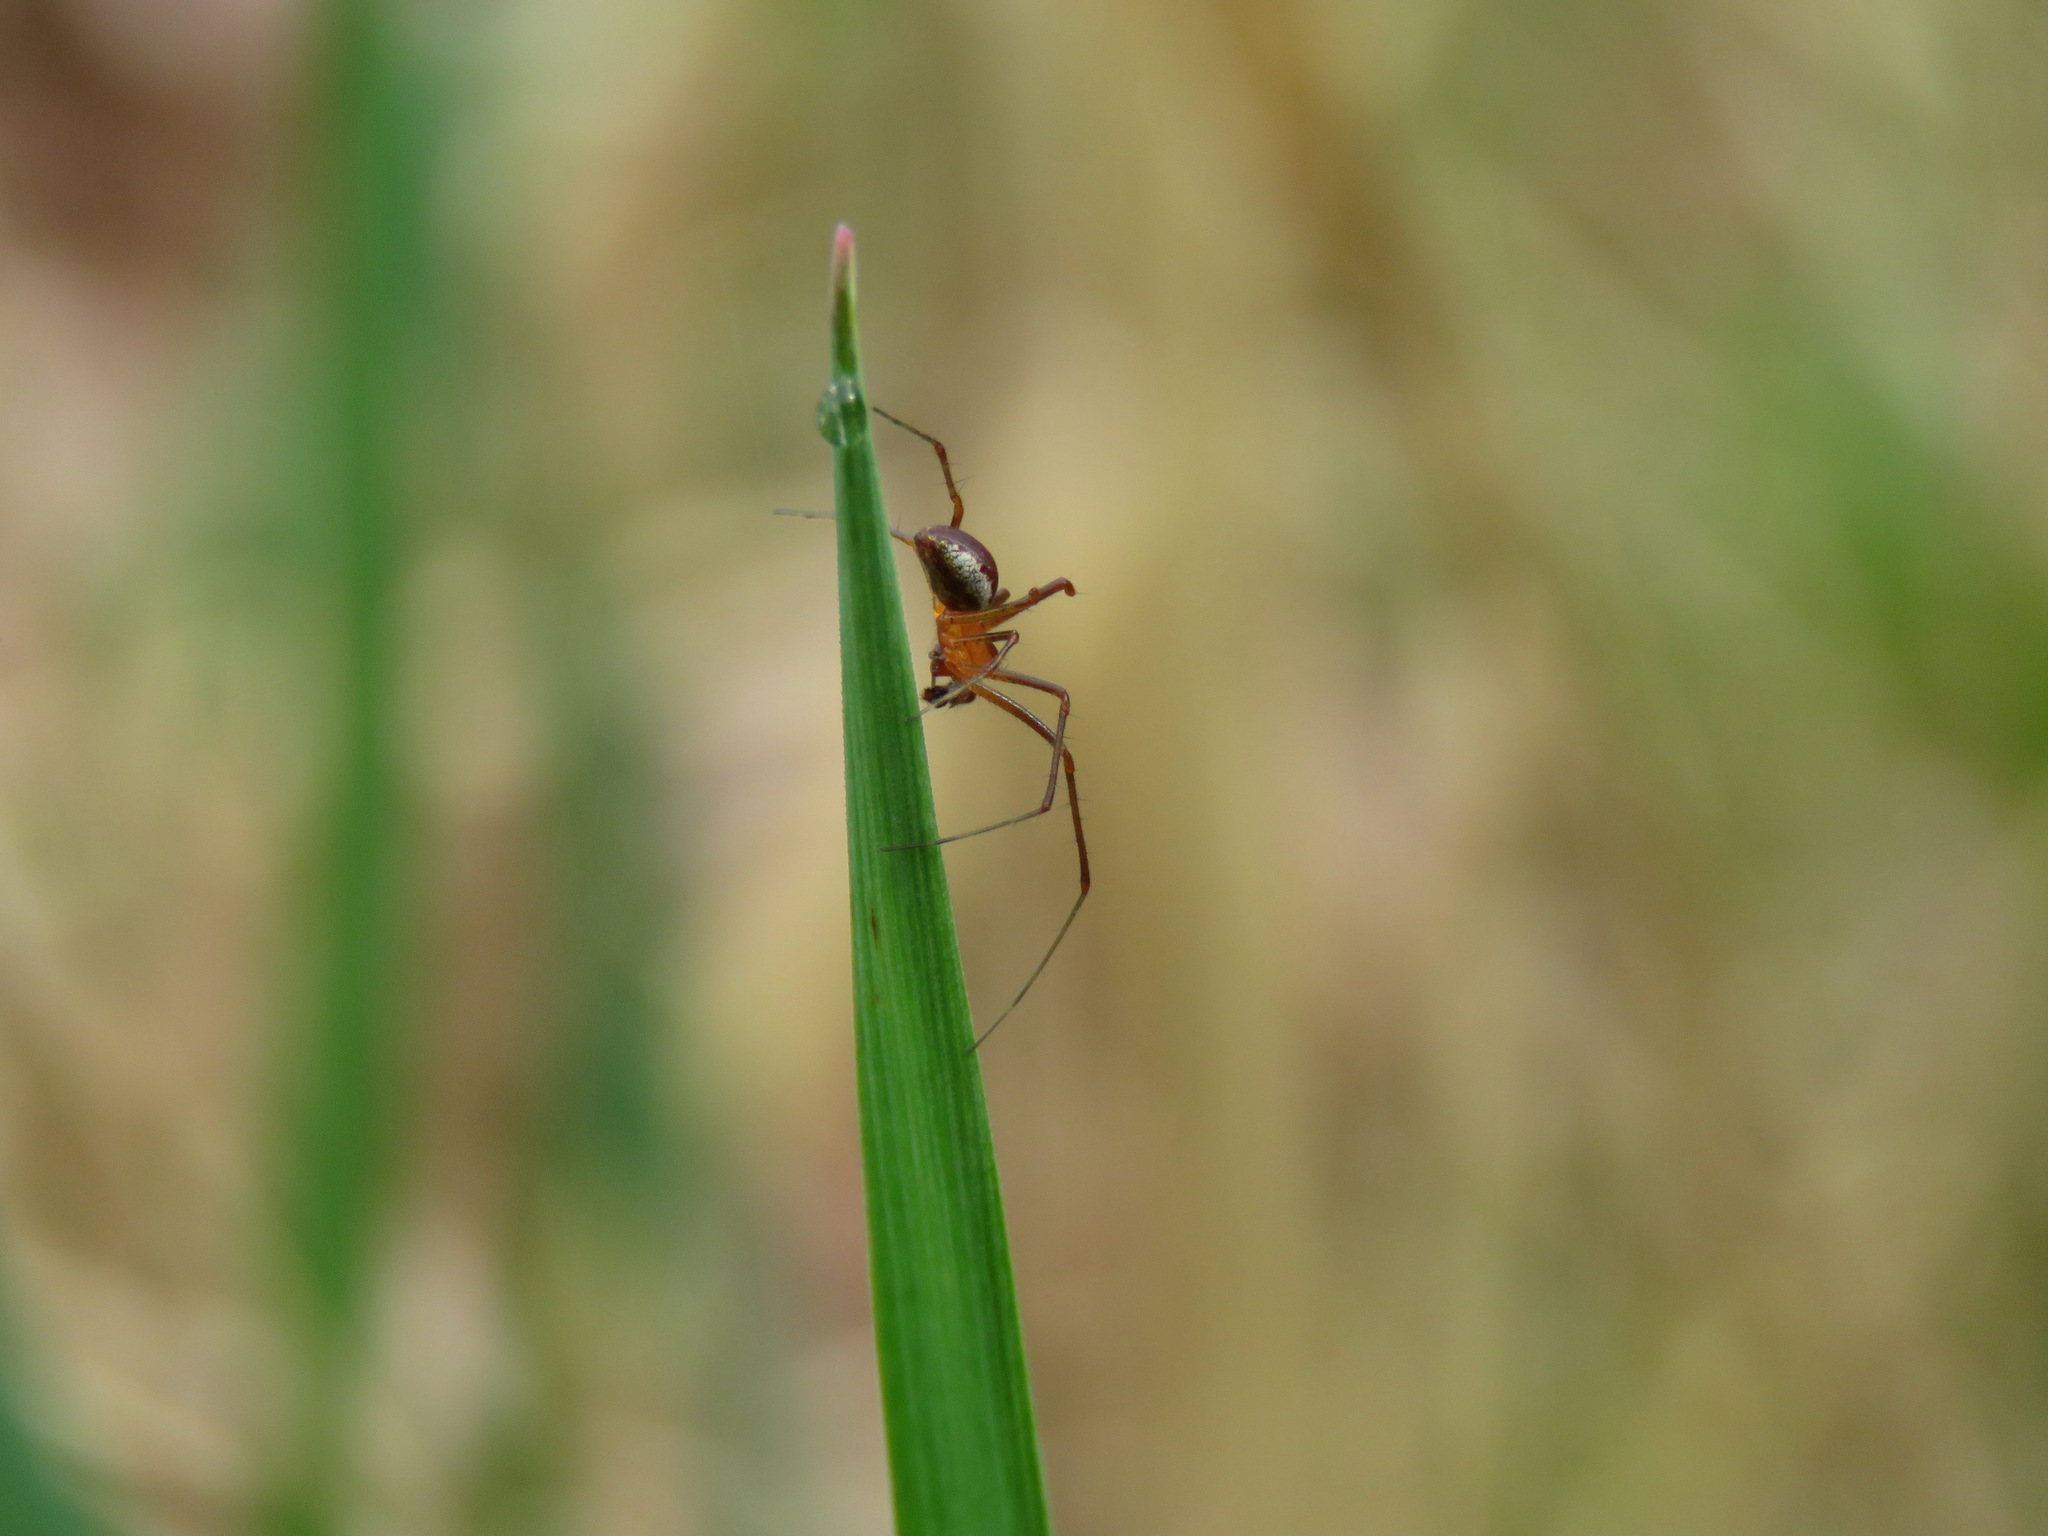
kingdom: Animalia
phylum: Arthropoda
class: Arachnida
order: Araneae
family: Linyphiidae
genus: Pityohyphantes
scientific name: Pityohyphantes rubrofasciatus
